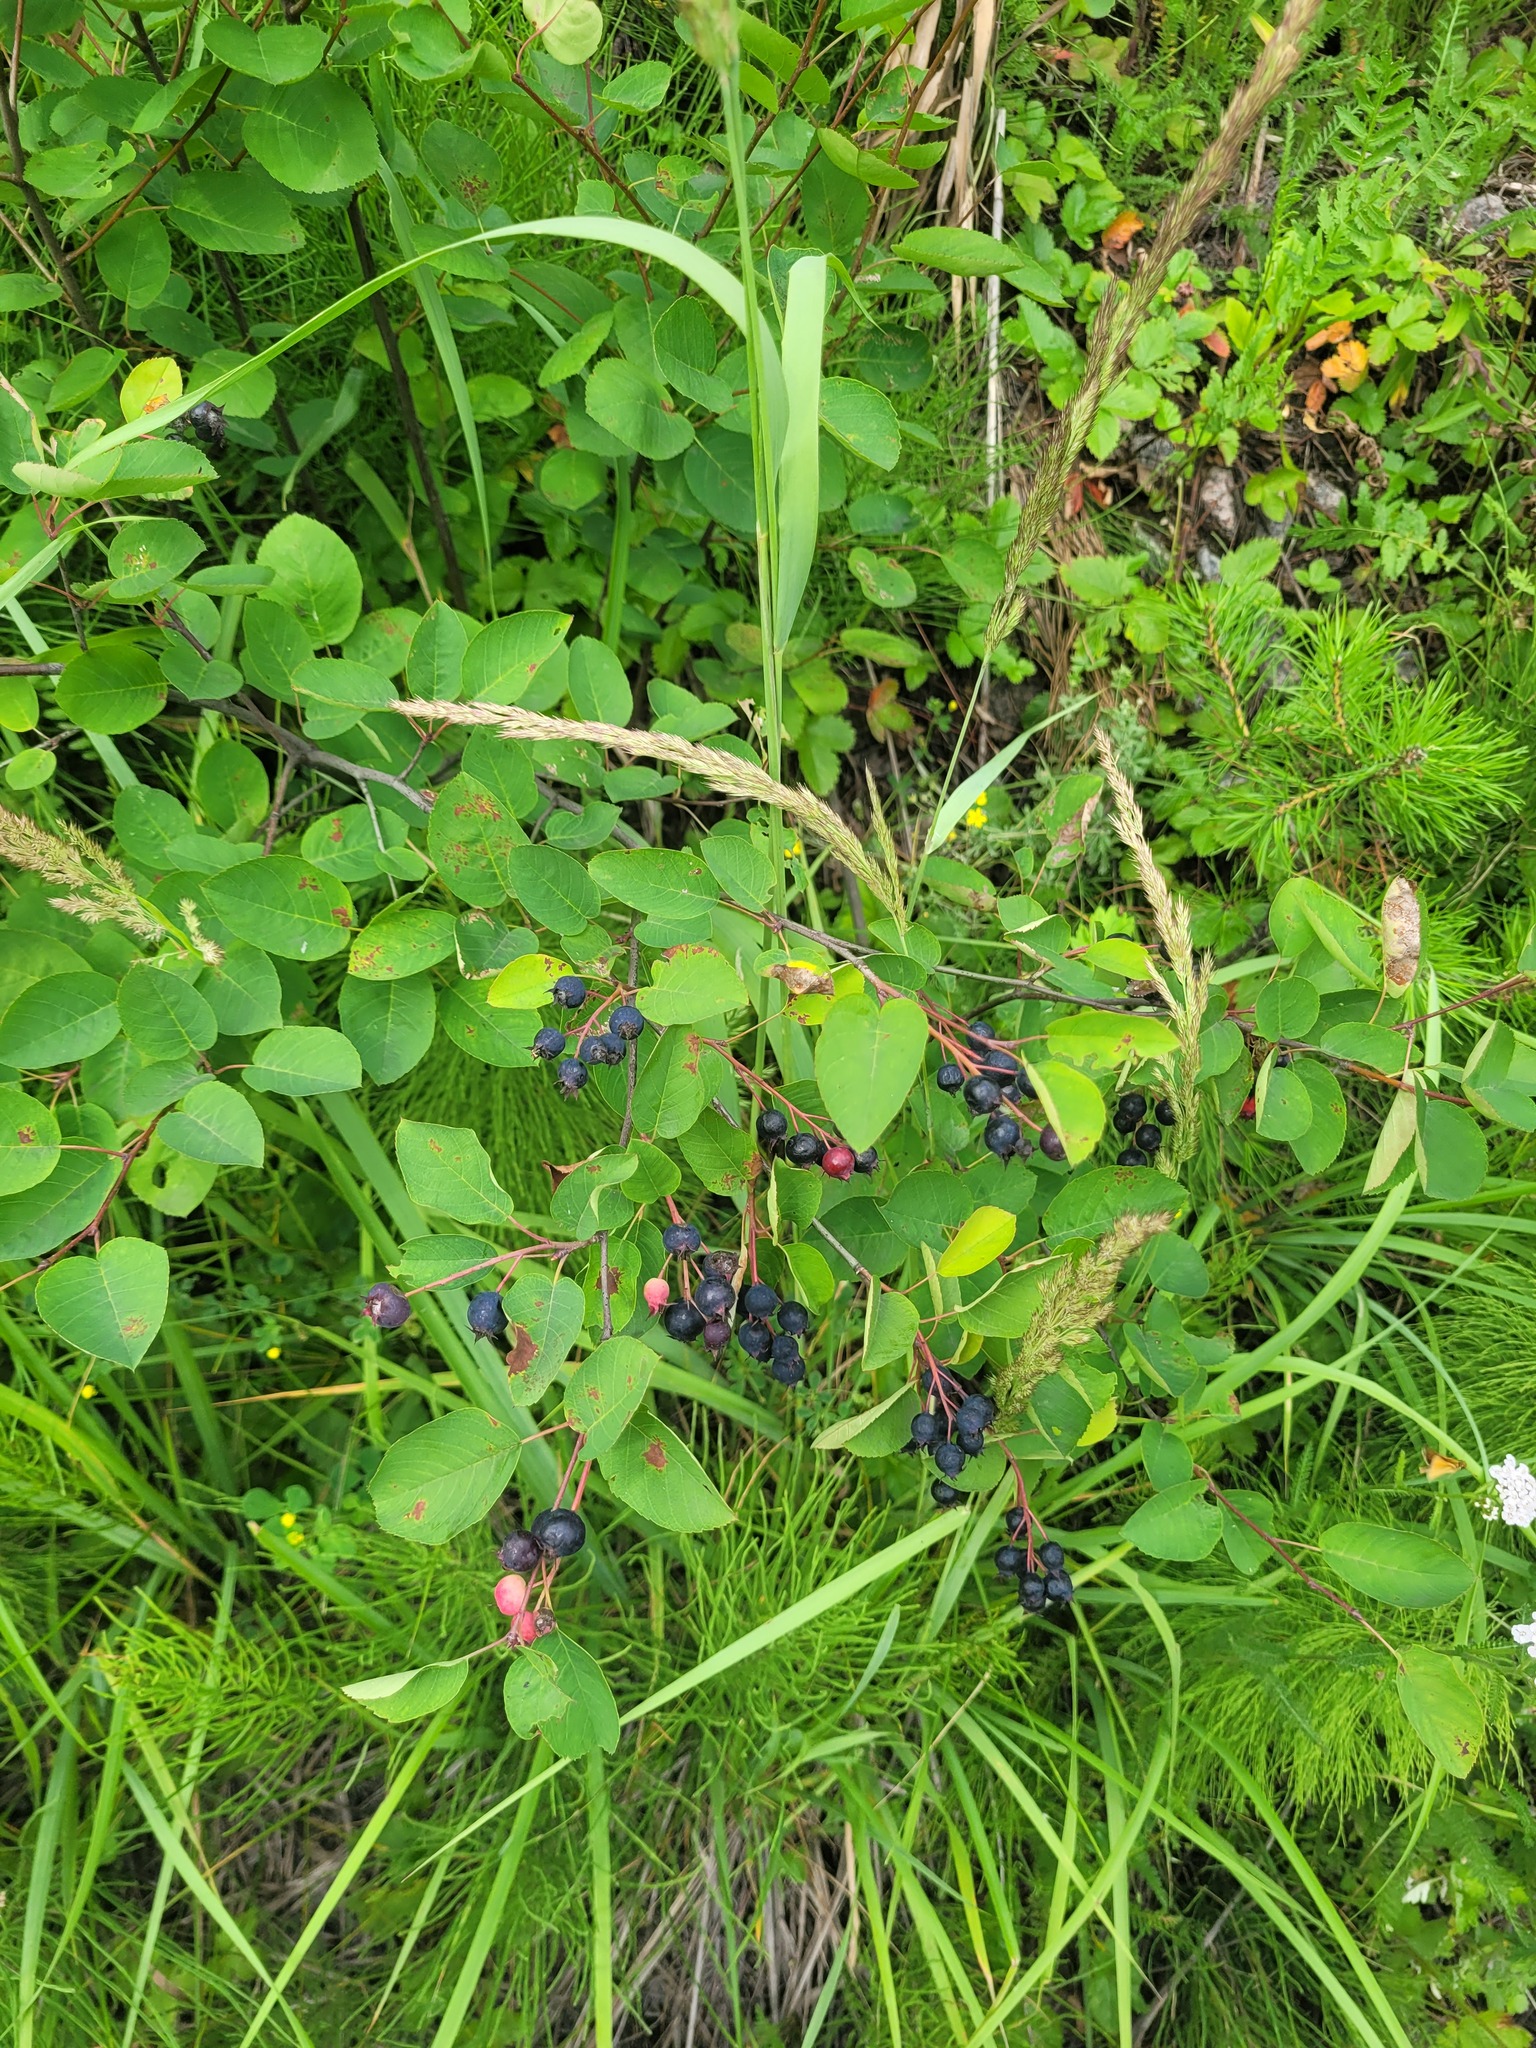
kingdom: Plantae
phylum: Tracheophyta
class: Magnoliopsida
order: Rosales
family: Rosaceae
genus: Amelanchier
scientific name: Amelanchier
